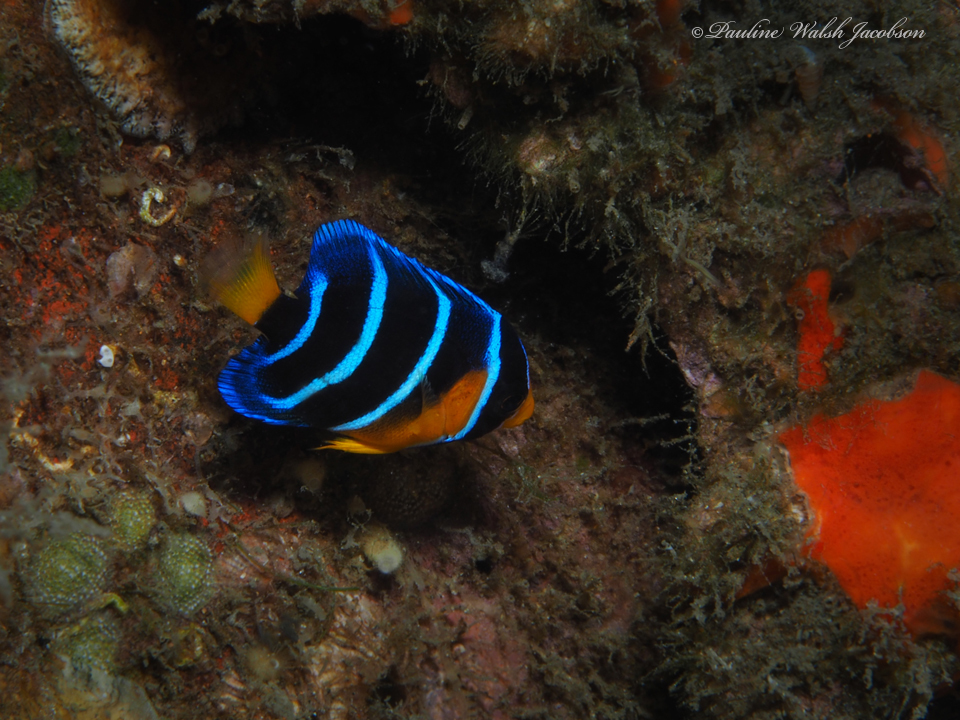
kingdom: Animalia
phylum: Chordata
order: Perciformes
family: Pomacanthidae
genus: Holacanthus
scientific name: Holacanthus ciliaris
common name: Queen angelfish
